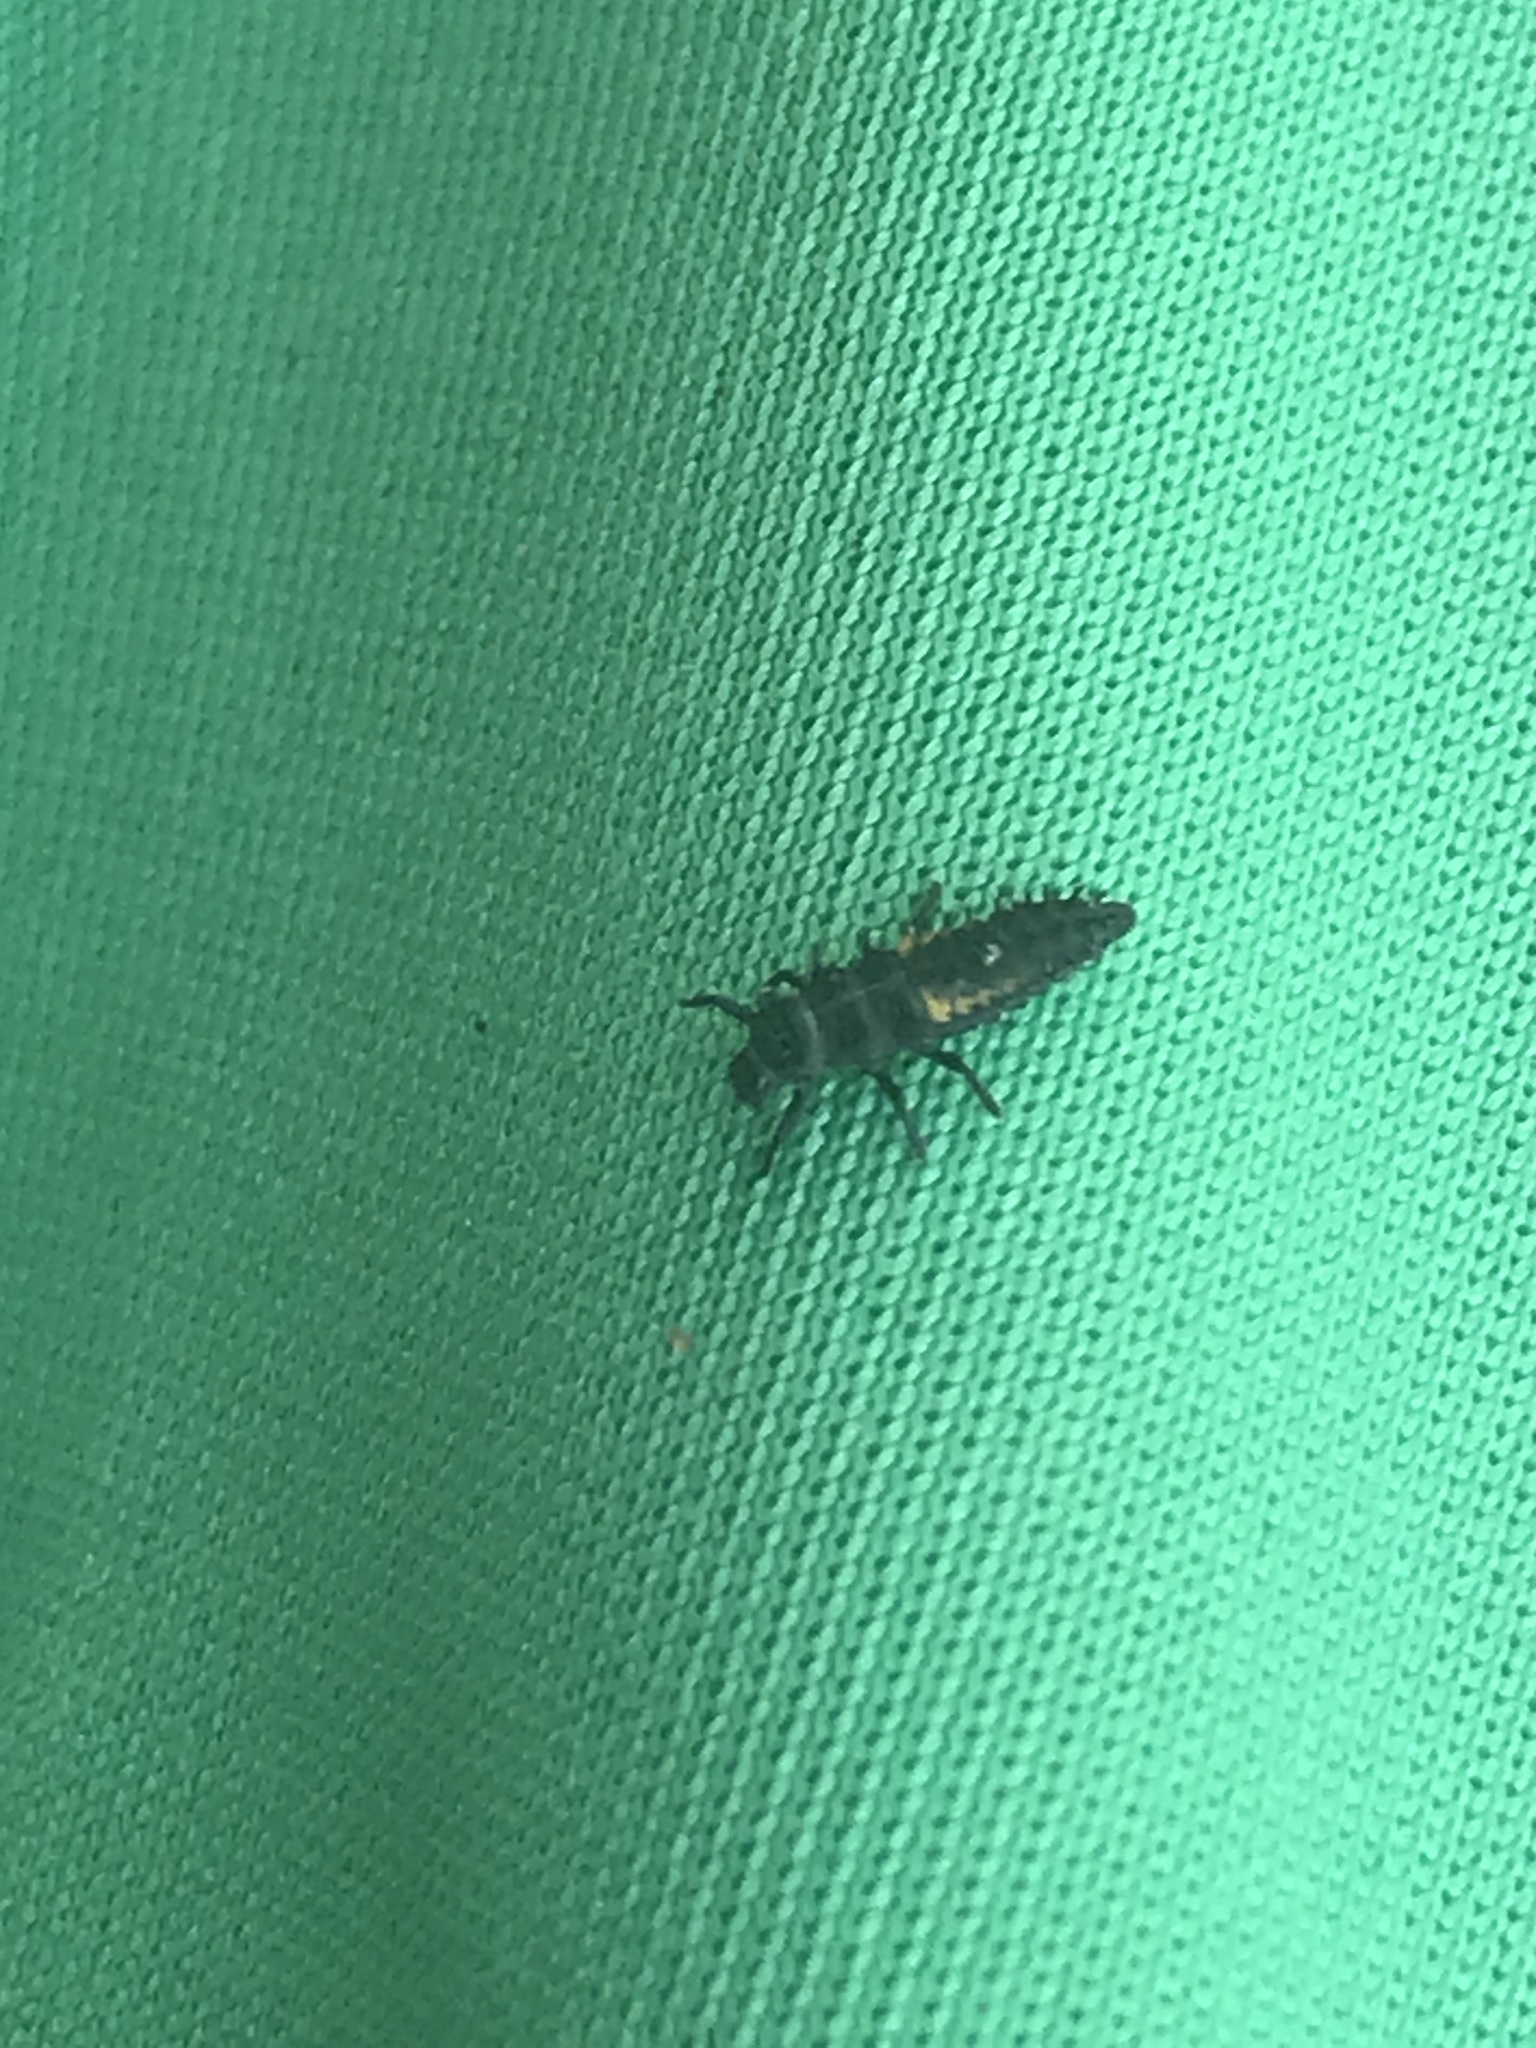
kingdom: Animalia
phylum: Arthropoda
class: Insecta
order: Coleoptera
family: Coccinellidae
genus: Harmonia
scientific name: Harmonia axyridis
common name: Harlequin ladybird
